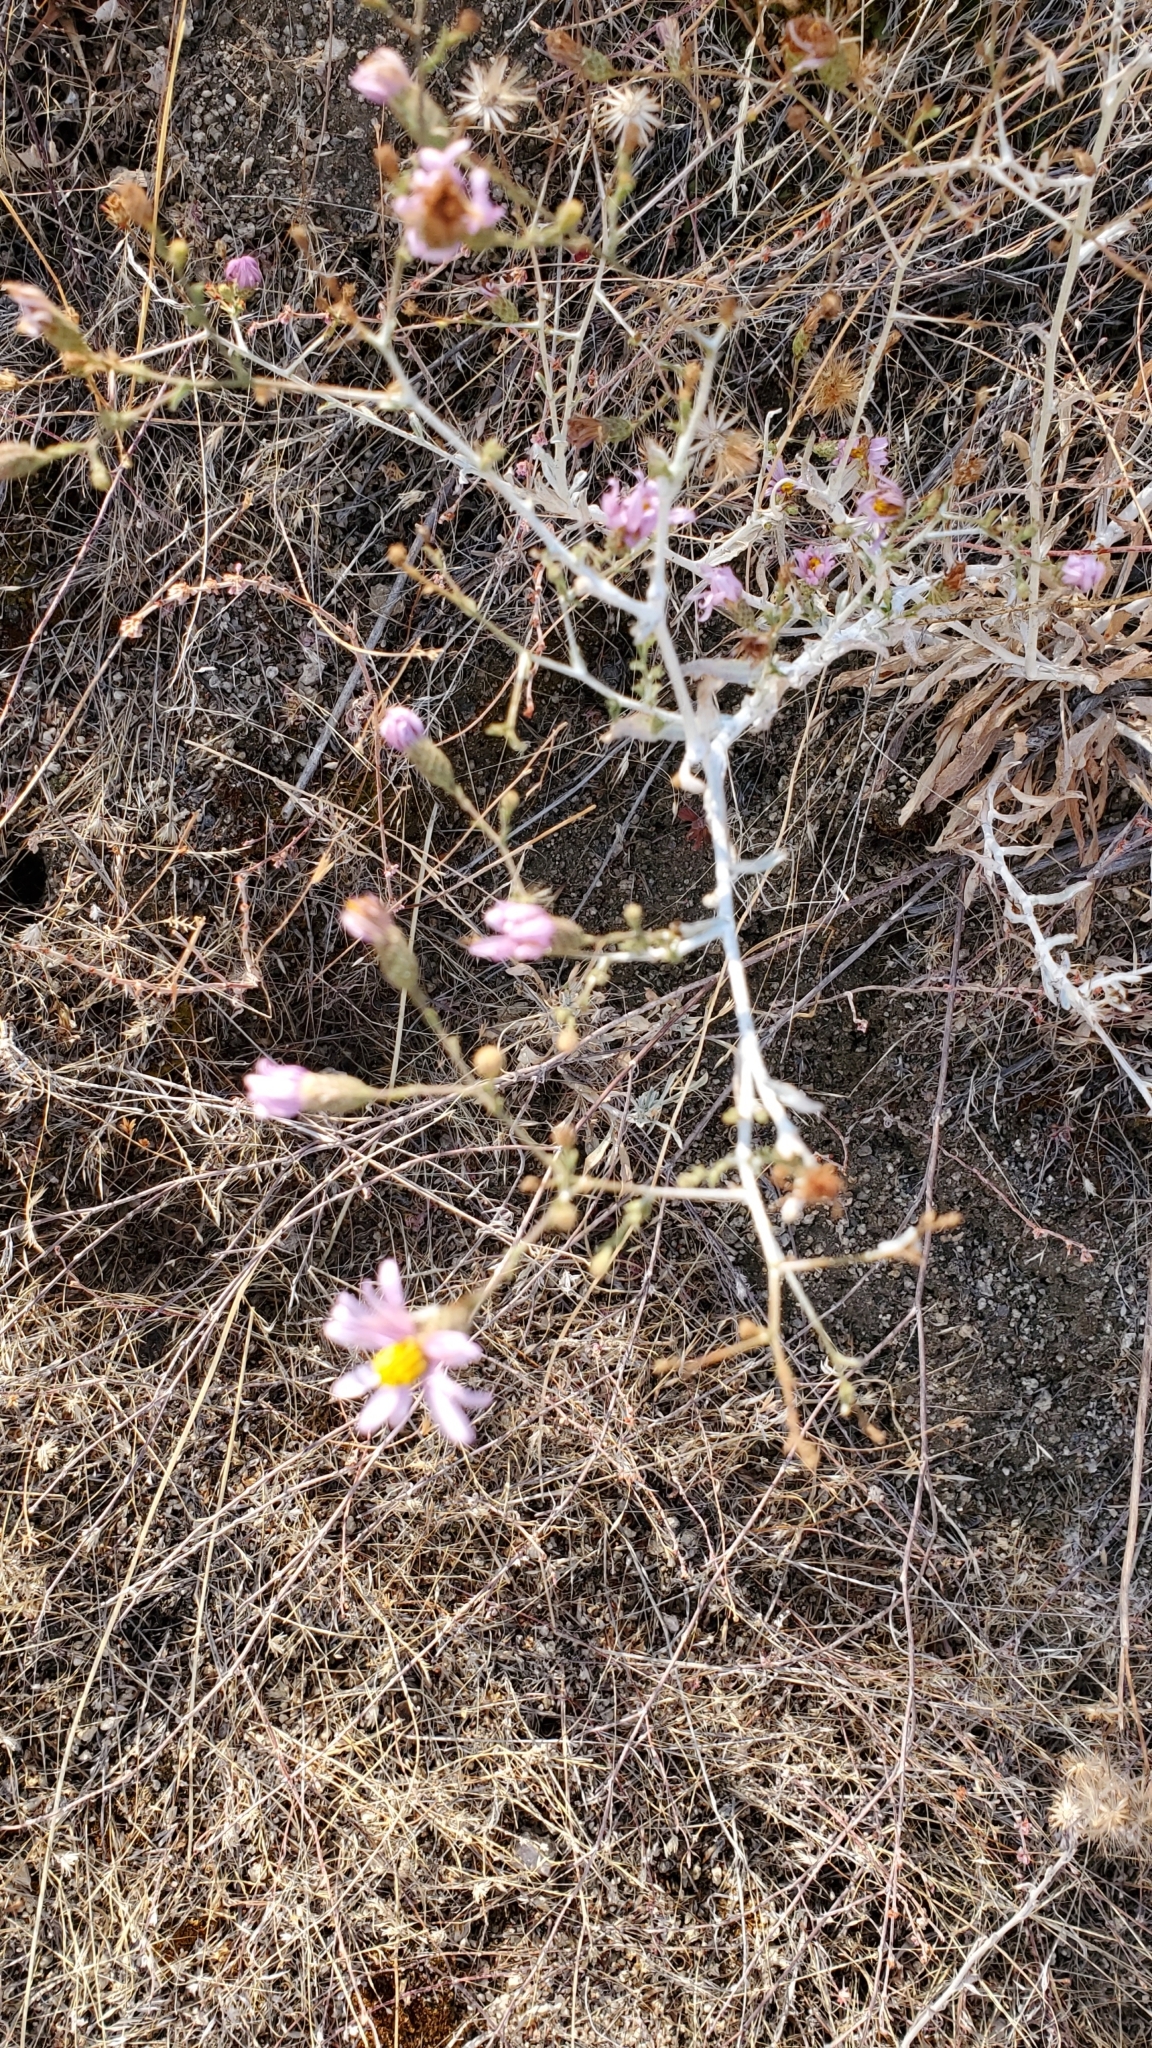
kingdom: Plantae
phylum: Tracheophyta
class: Magnoliopsida
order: Asterales
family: Asteraceae
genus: Corethrogyne
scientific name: Corethrogyne filaginifolia
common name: Sand-aster
